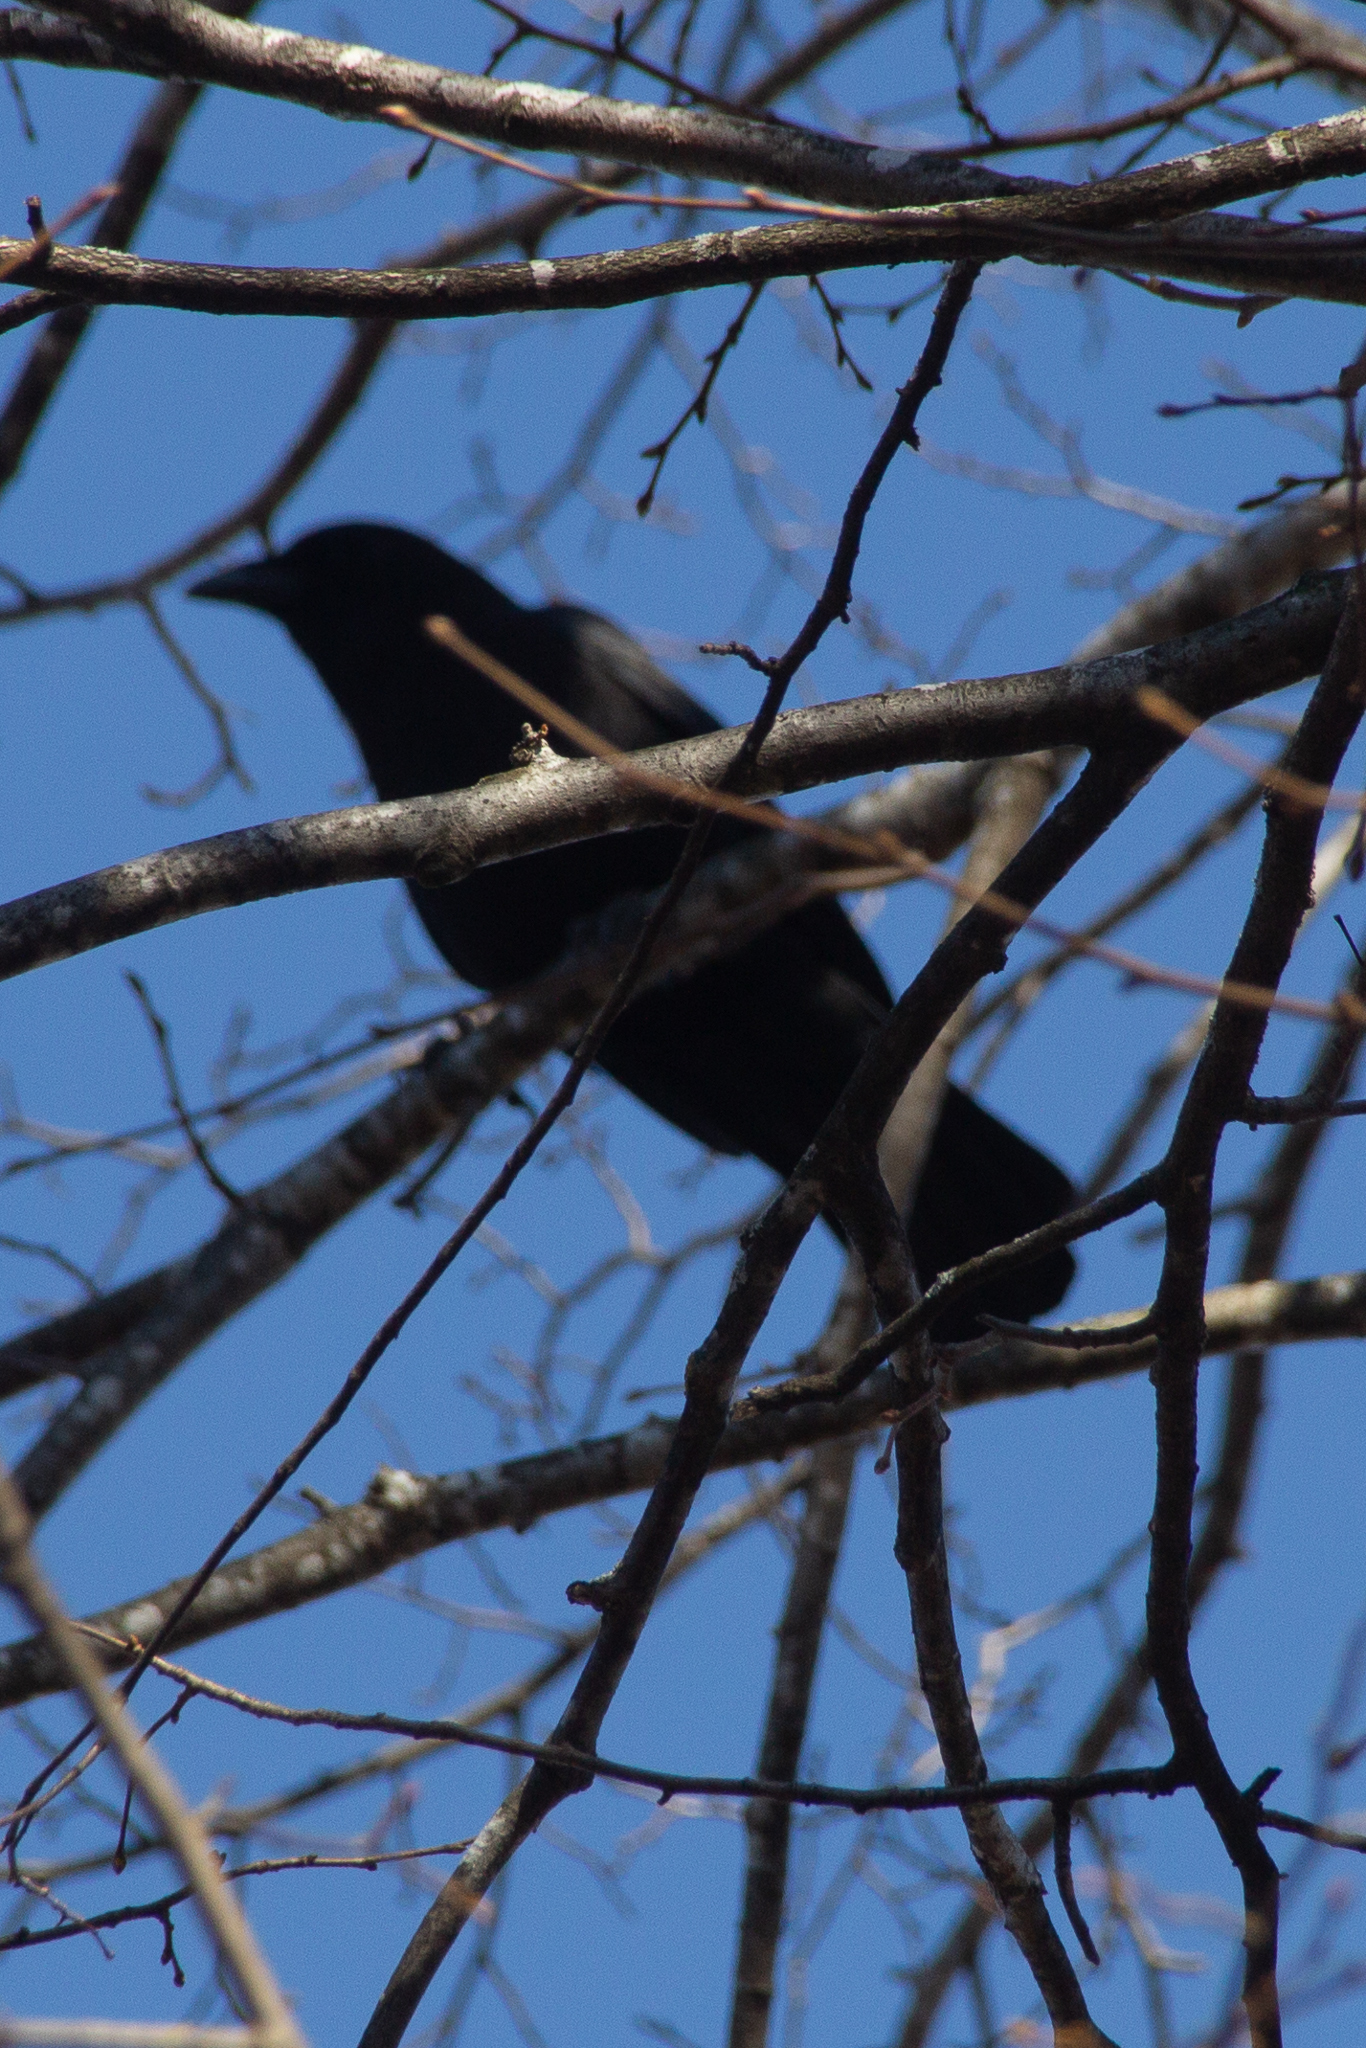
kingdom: Animalia
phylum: Chordata
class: Aves
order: Passeriformes
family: Corvidae
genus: Corvus
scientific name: Corvus brachyrhynchos
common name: American crow
